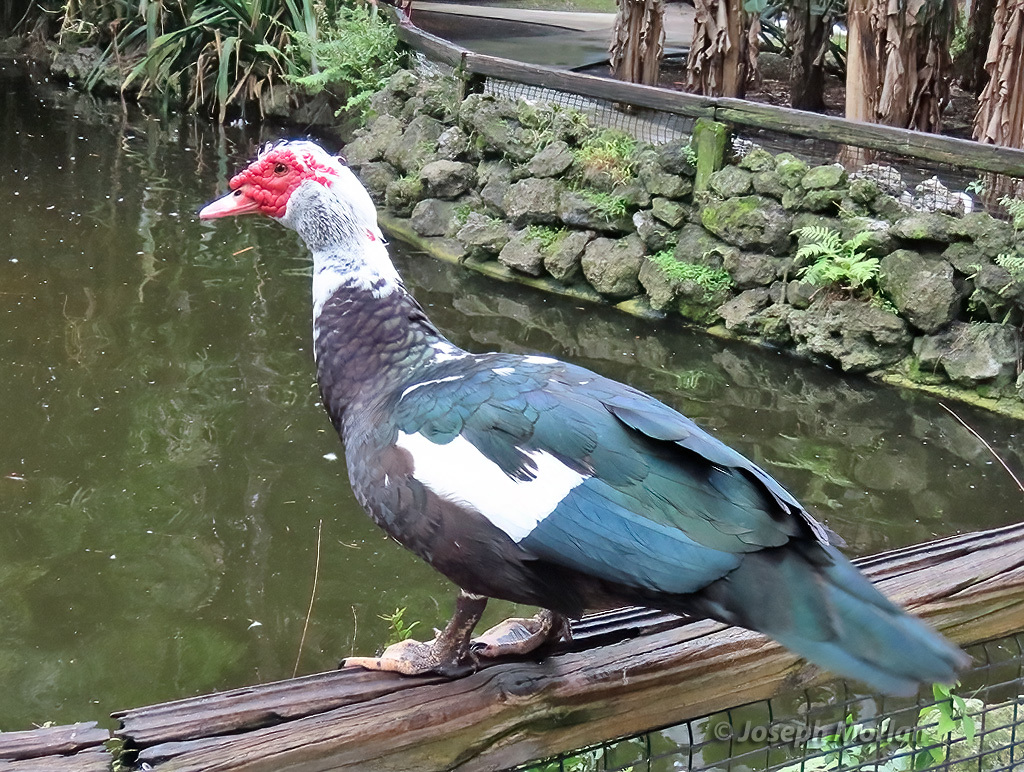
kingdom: Animalia
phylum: Chordata
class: Aves
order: Anseriformes
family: Anatidae
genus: Cairina
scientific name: Cairina moschata
